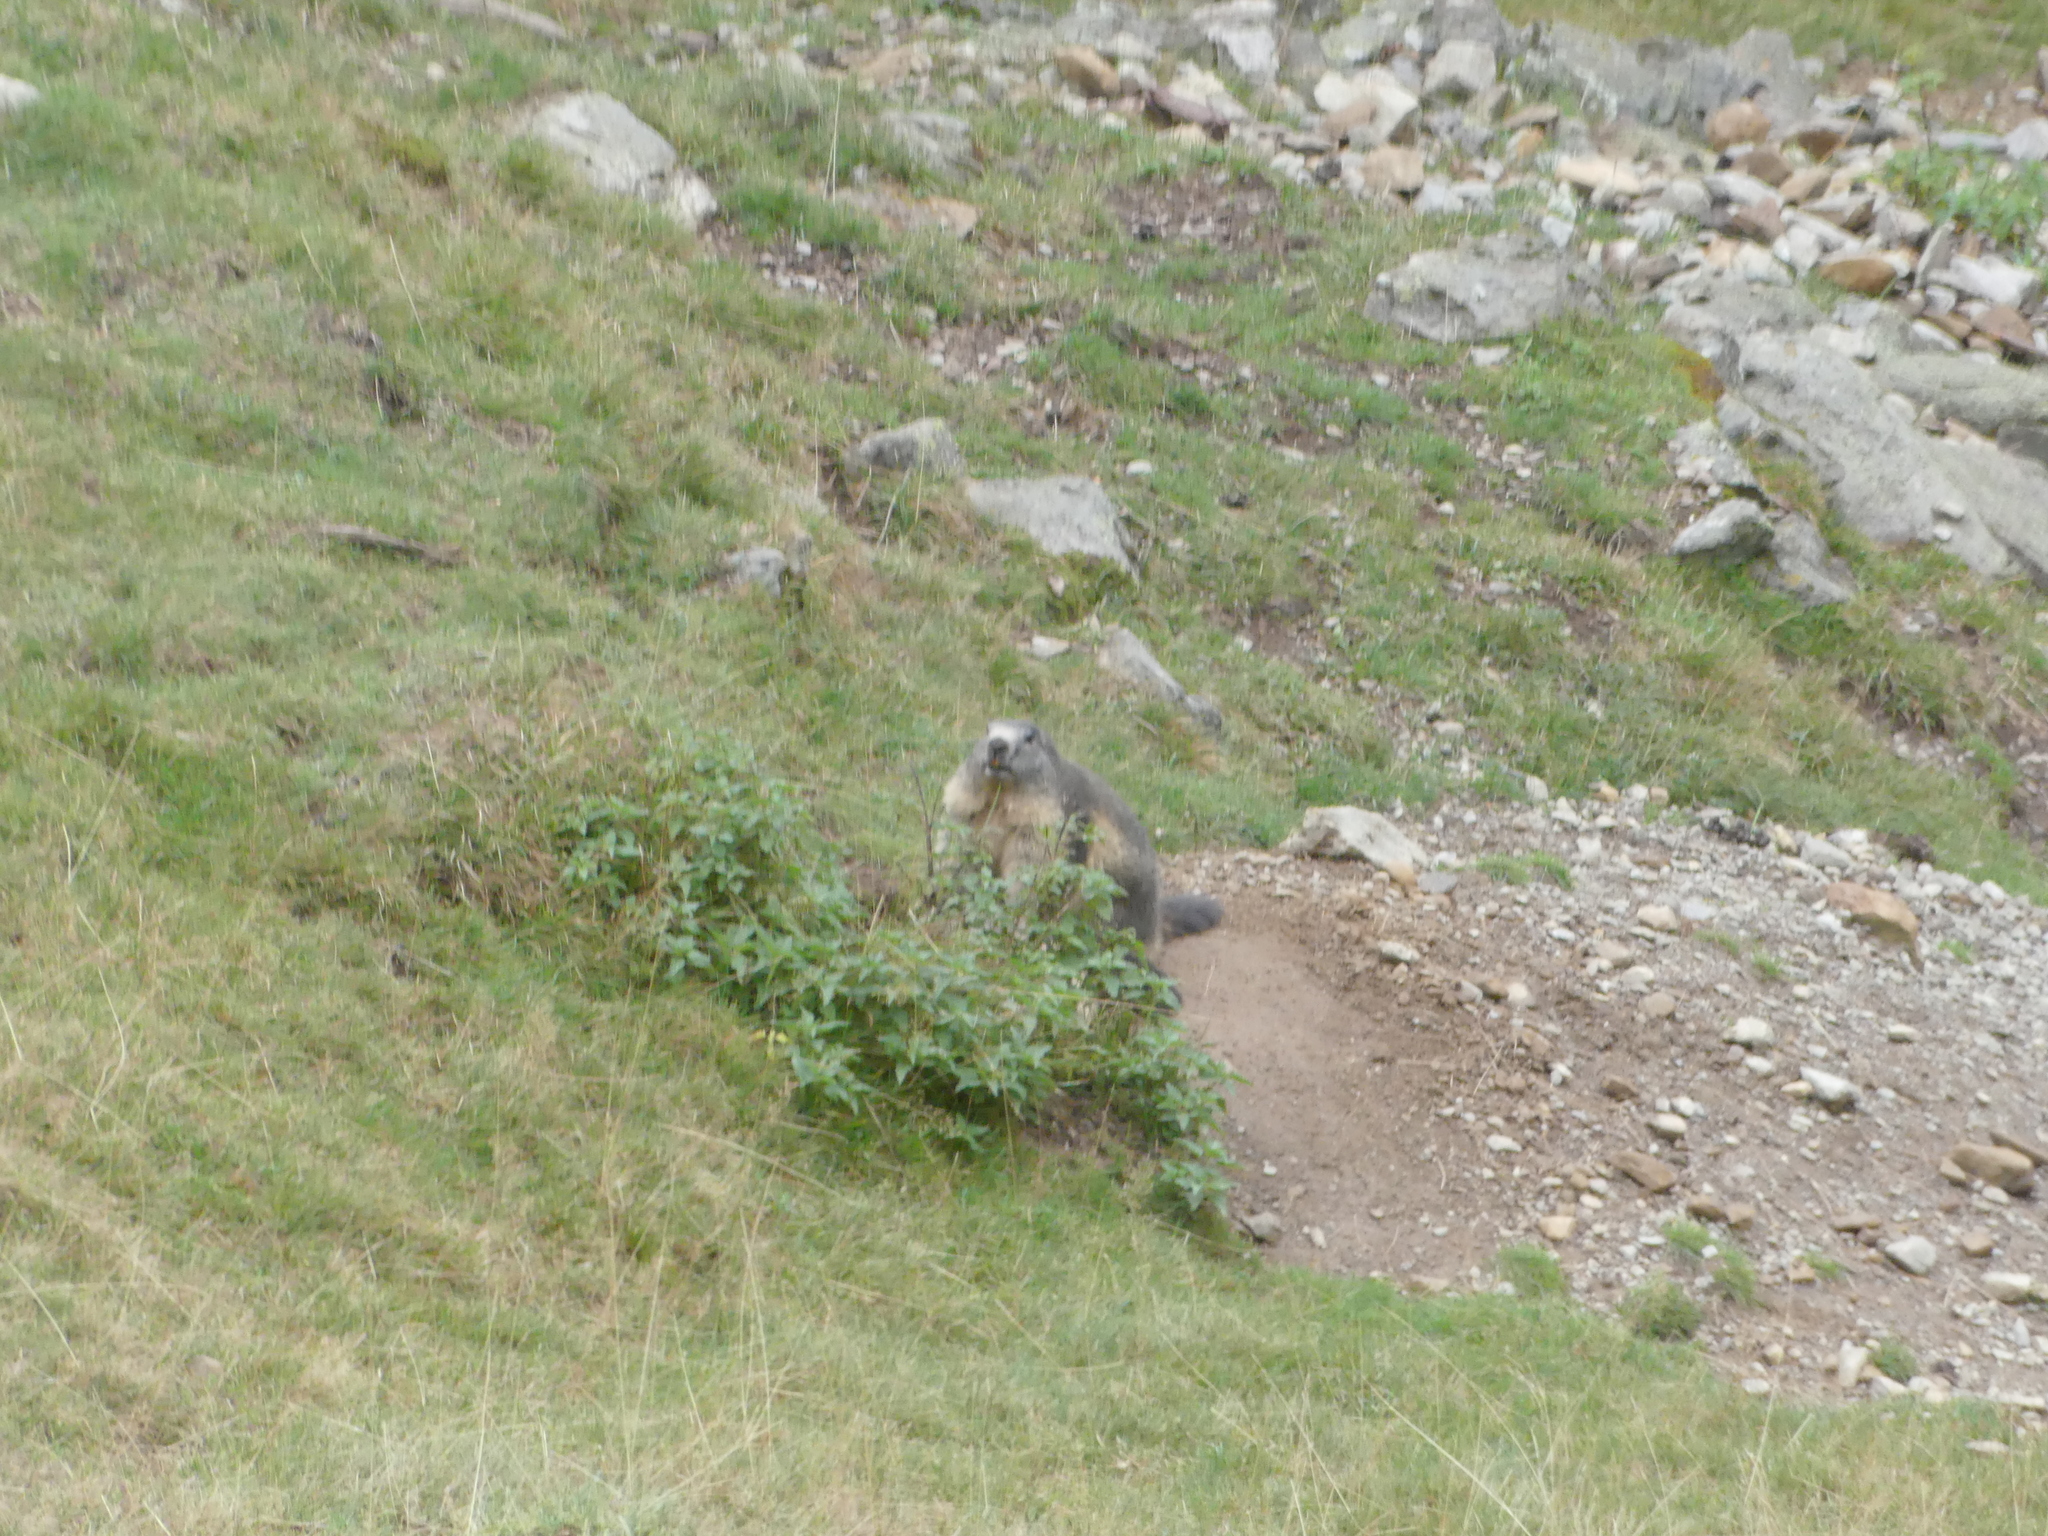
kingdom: Animalia
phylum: Chordata
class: Mammalia
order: Rodentia
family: Sciuridae
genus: Marmota
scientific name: Marmota marmota
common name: Alpine marmot
